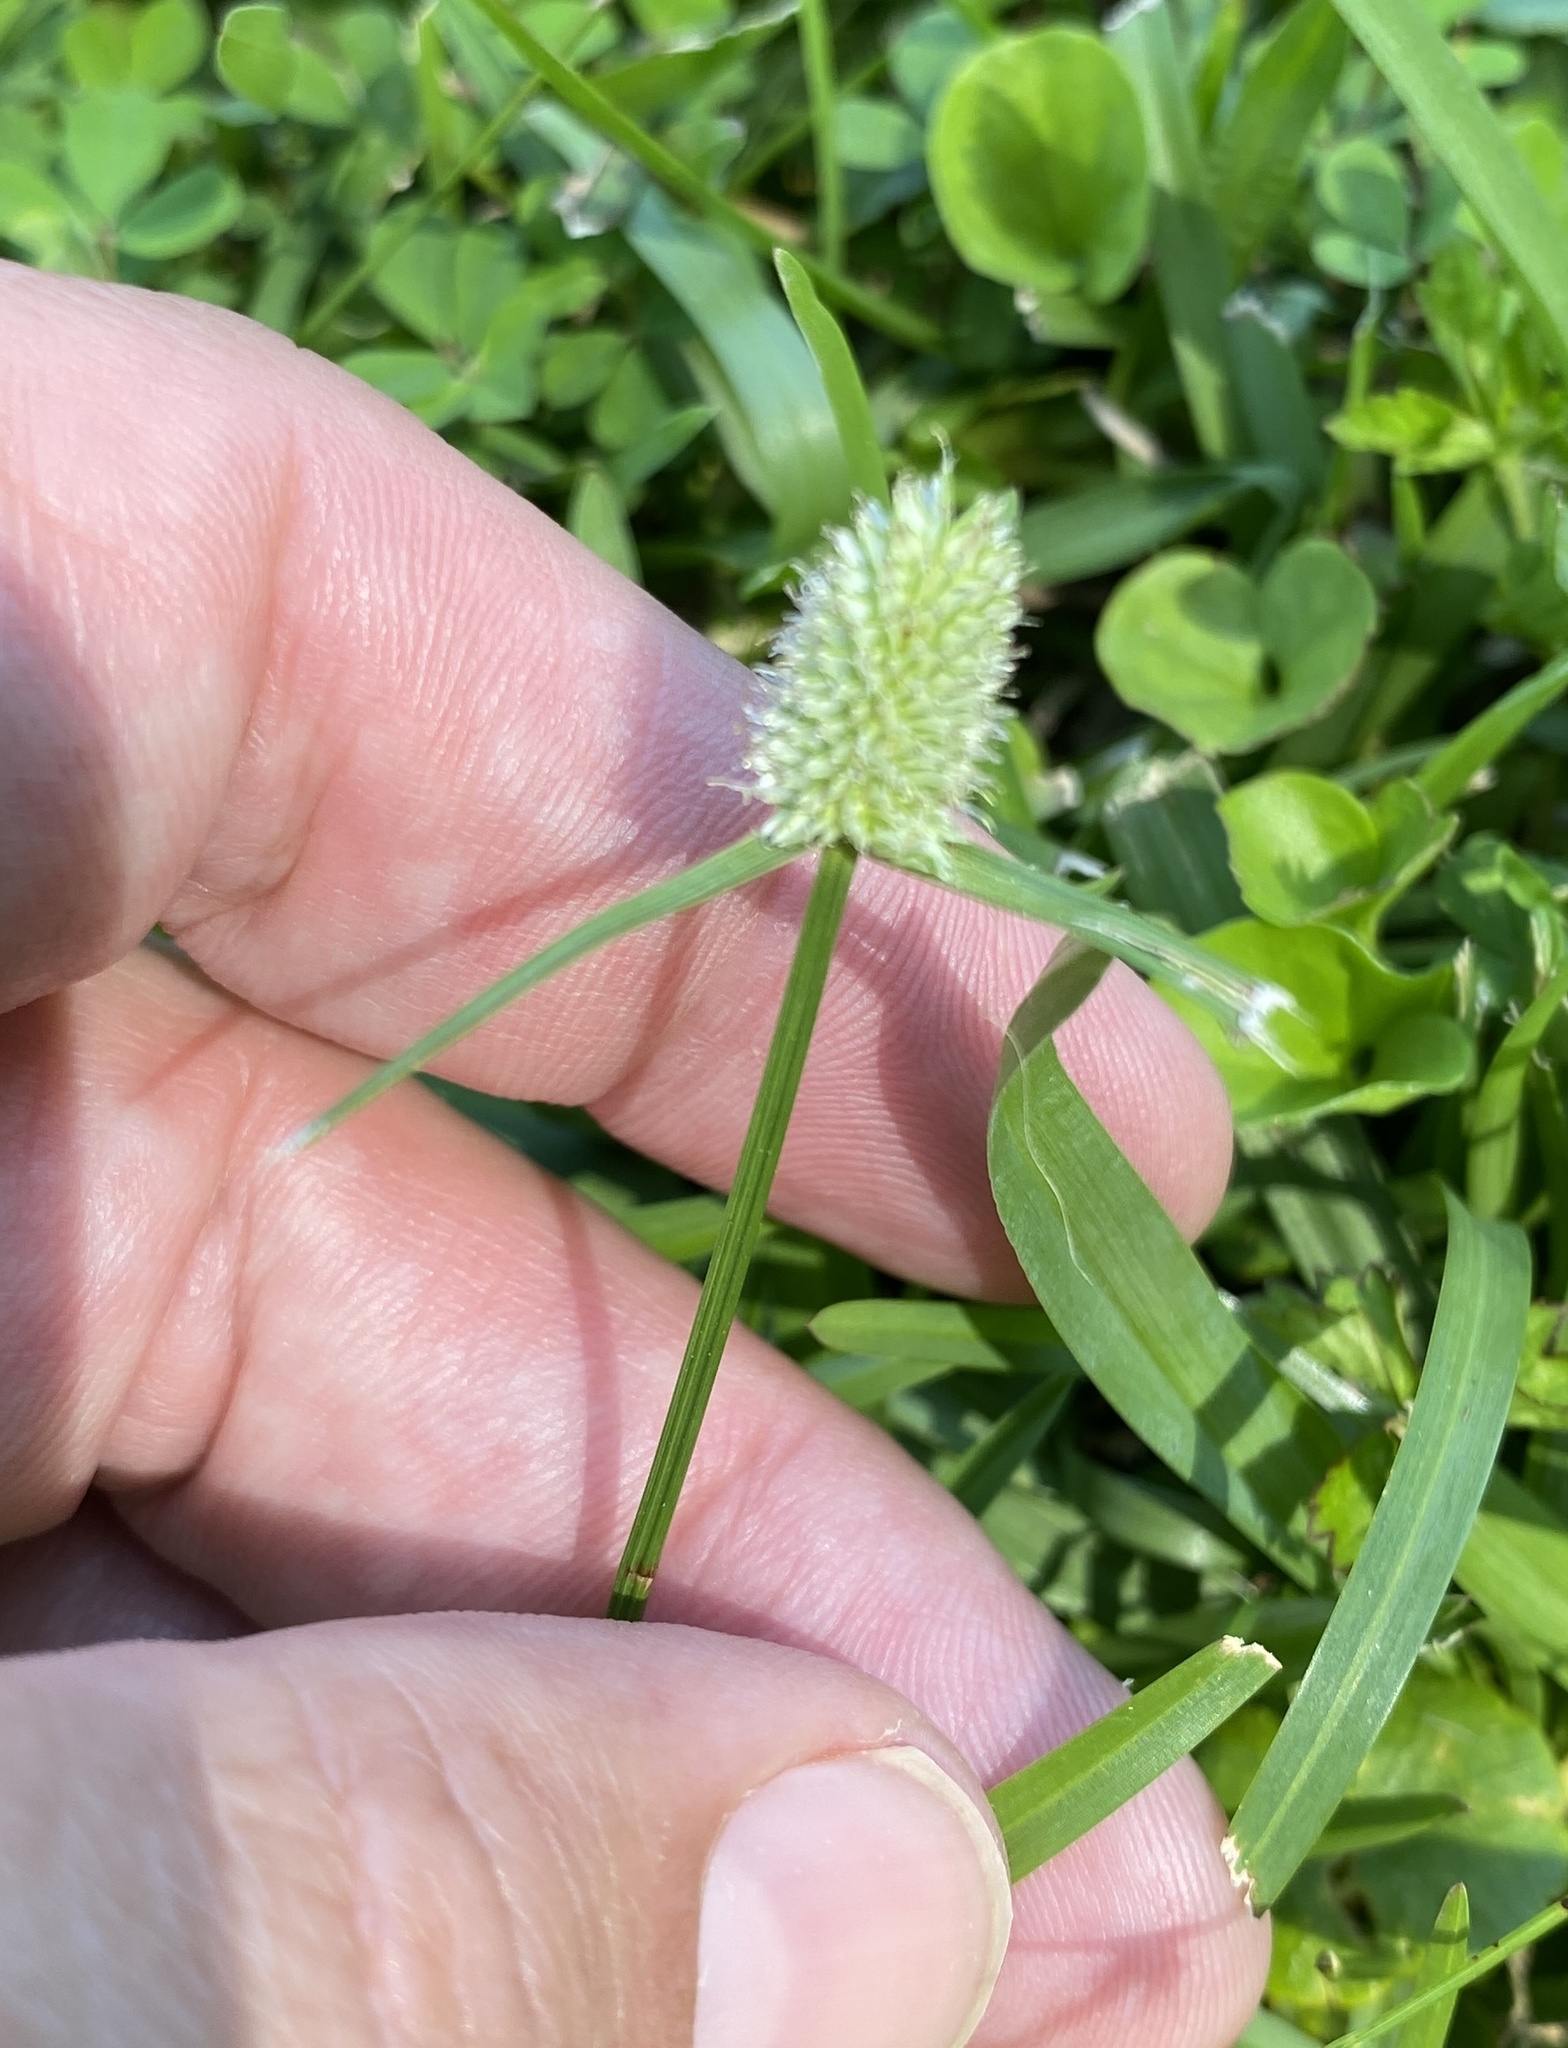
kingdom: Plantae
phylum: Tracheophyta
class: Liliopsida
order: Poales
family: Cyperaceae
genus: Cyperus
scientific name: Cyperus sesquiflorus
